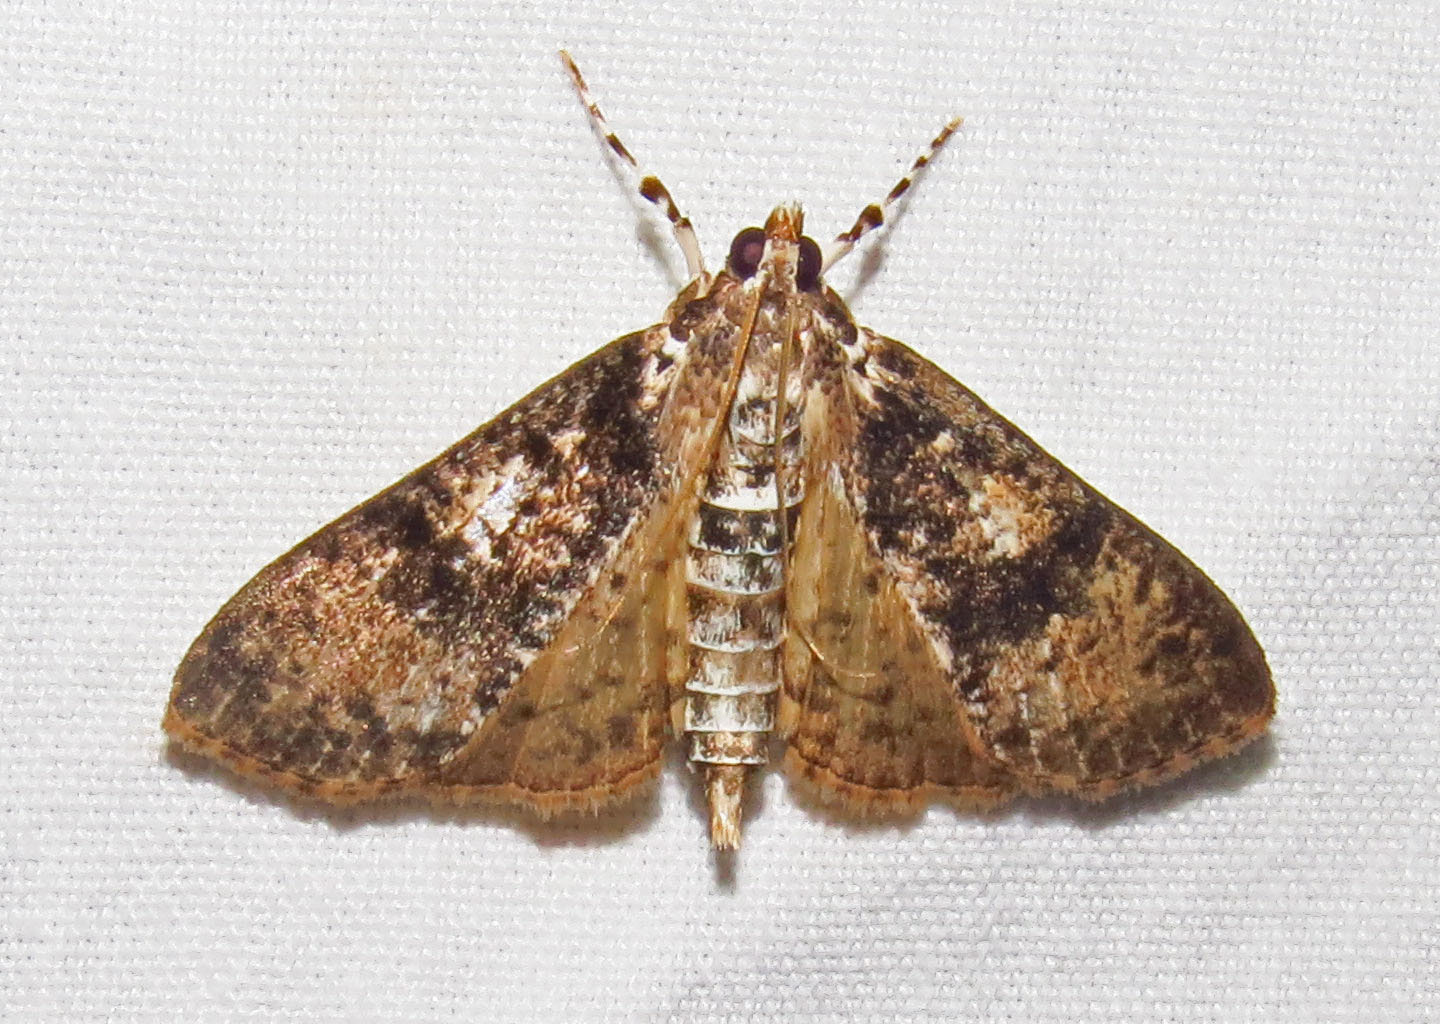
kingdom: Animalia
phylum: Arthropoda
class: Insecta
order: Lepidoptera
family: Crambidae
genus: Palpita
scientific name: Palpita magniferalis
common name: Splendid palpita moth
